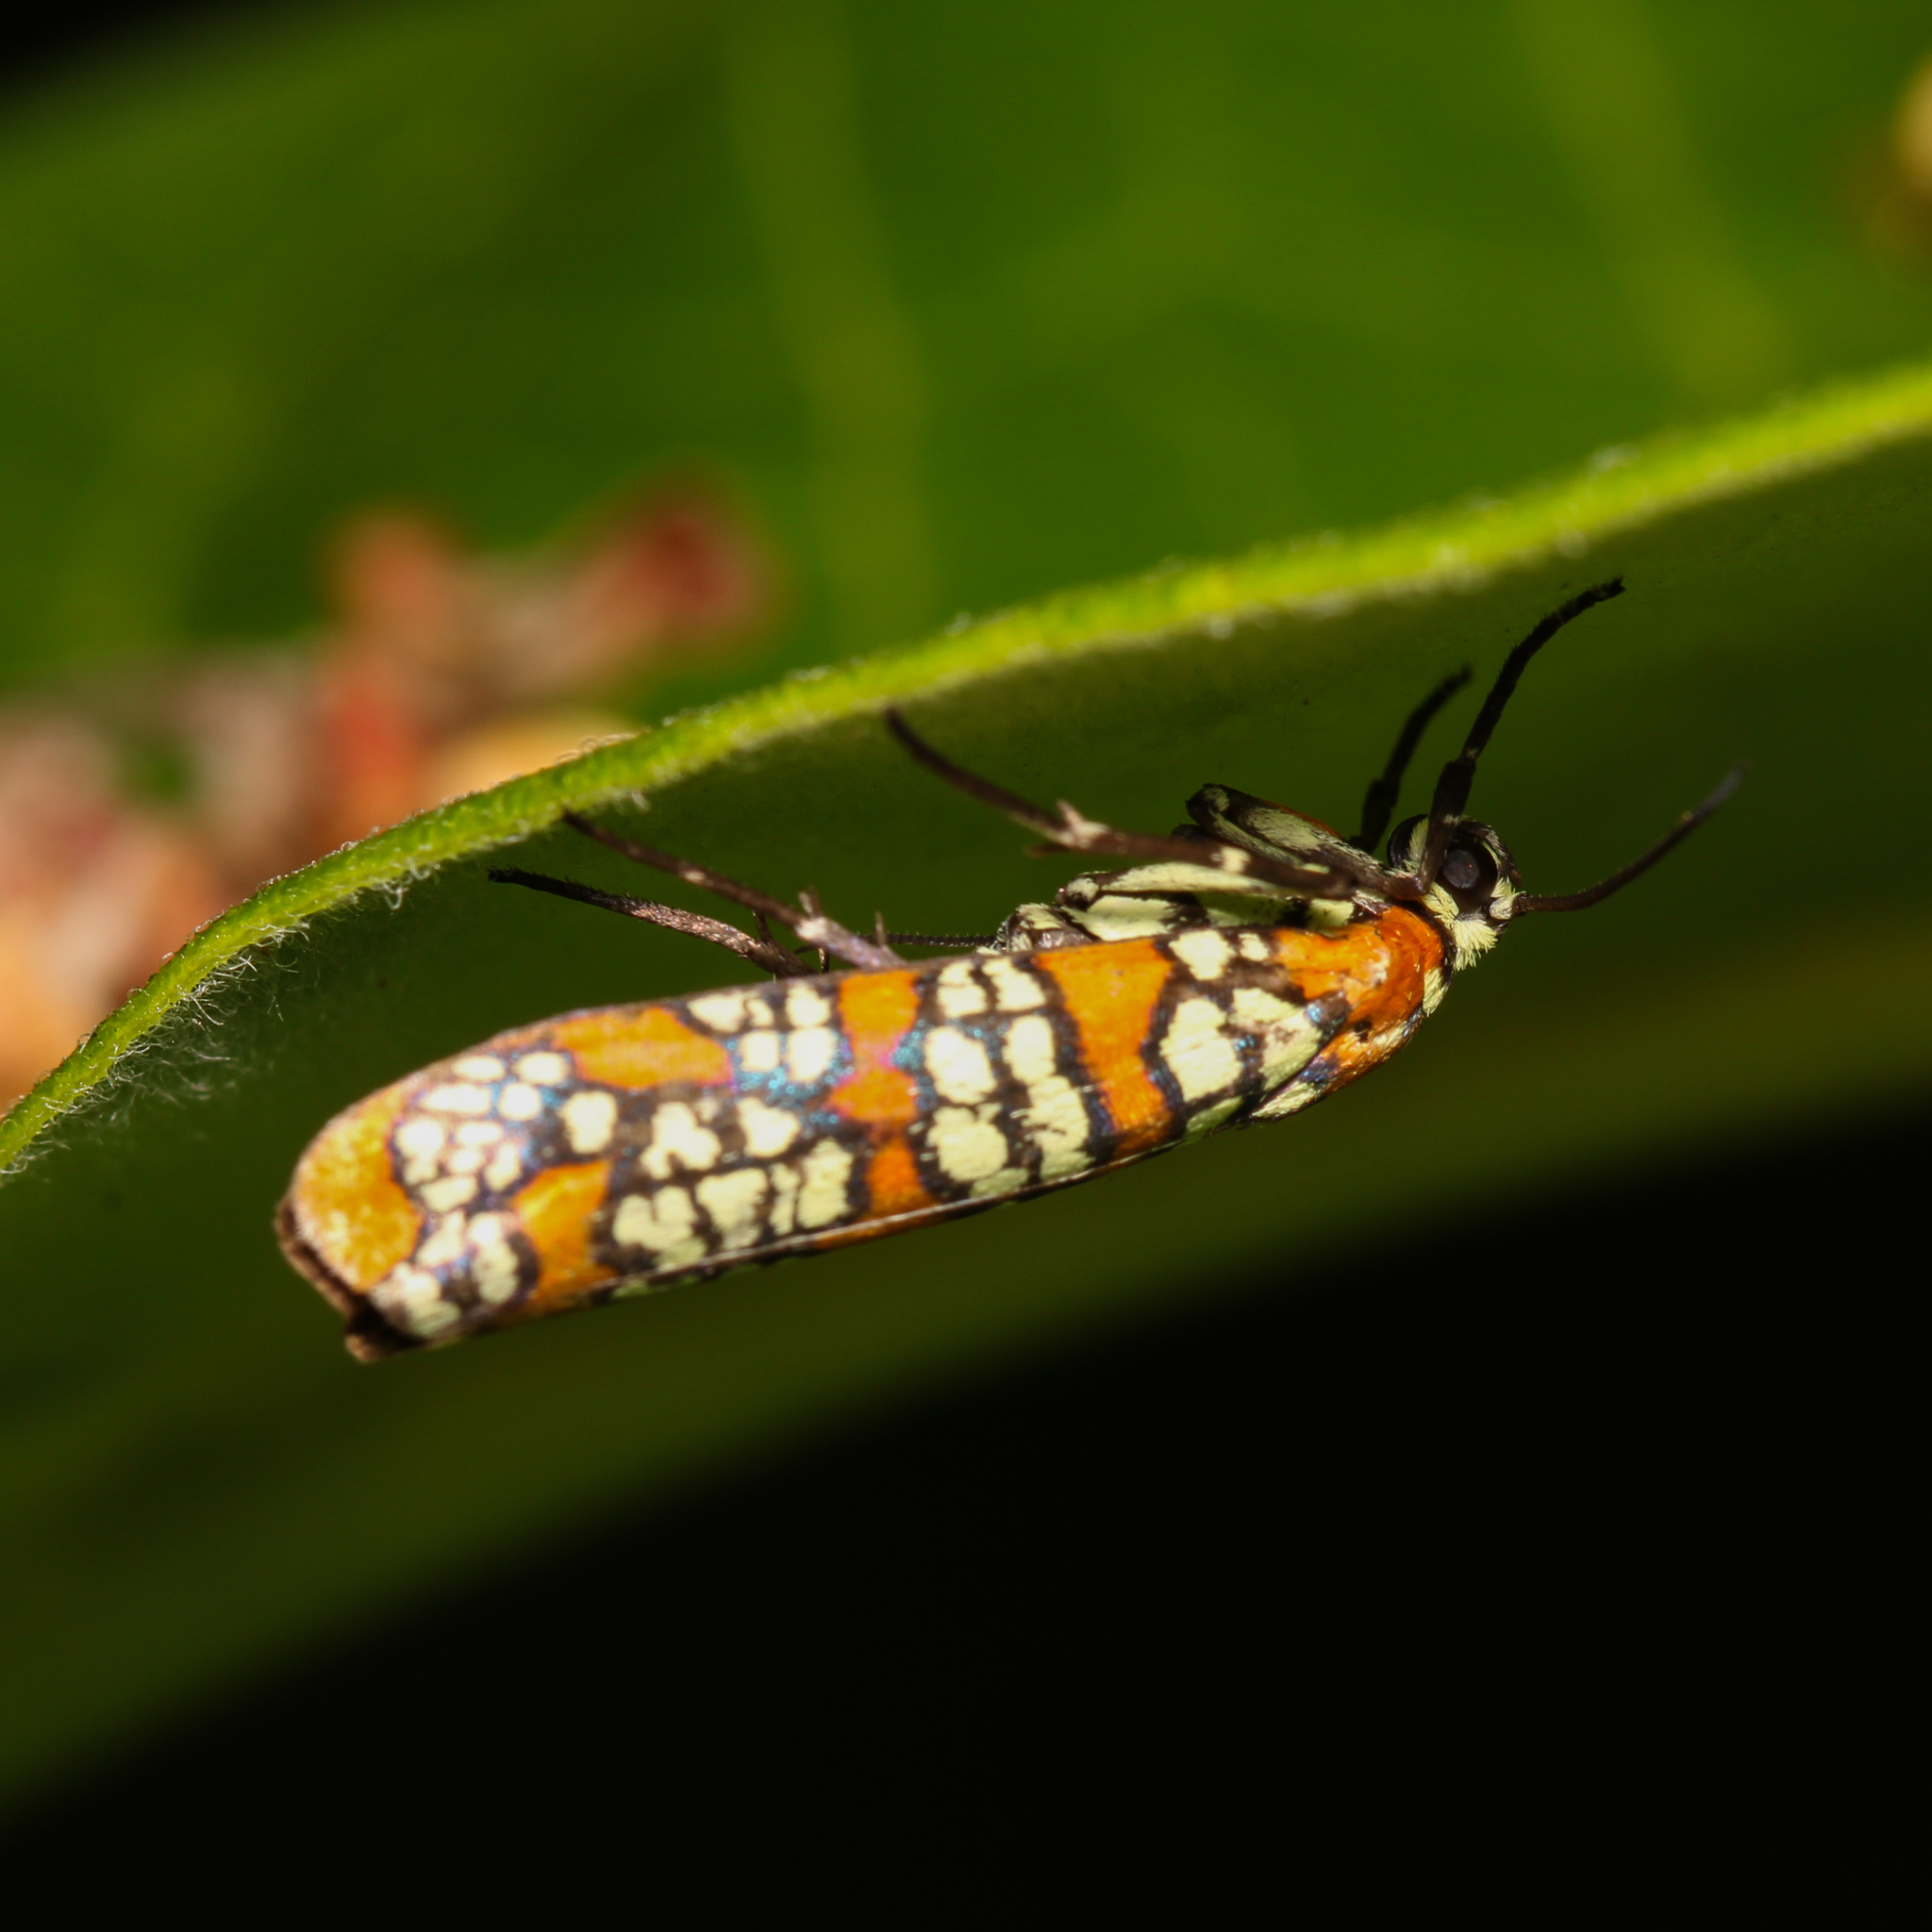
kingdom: Animalia
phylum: Arthropoda
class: Insecta
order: Lepidoptera
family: Attevidae
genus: Atteva
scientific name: Atteva punctella
